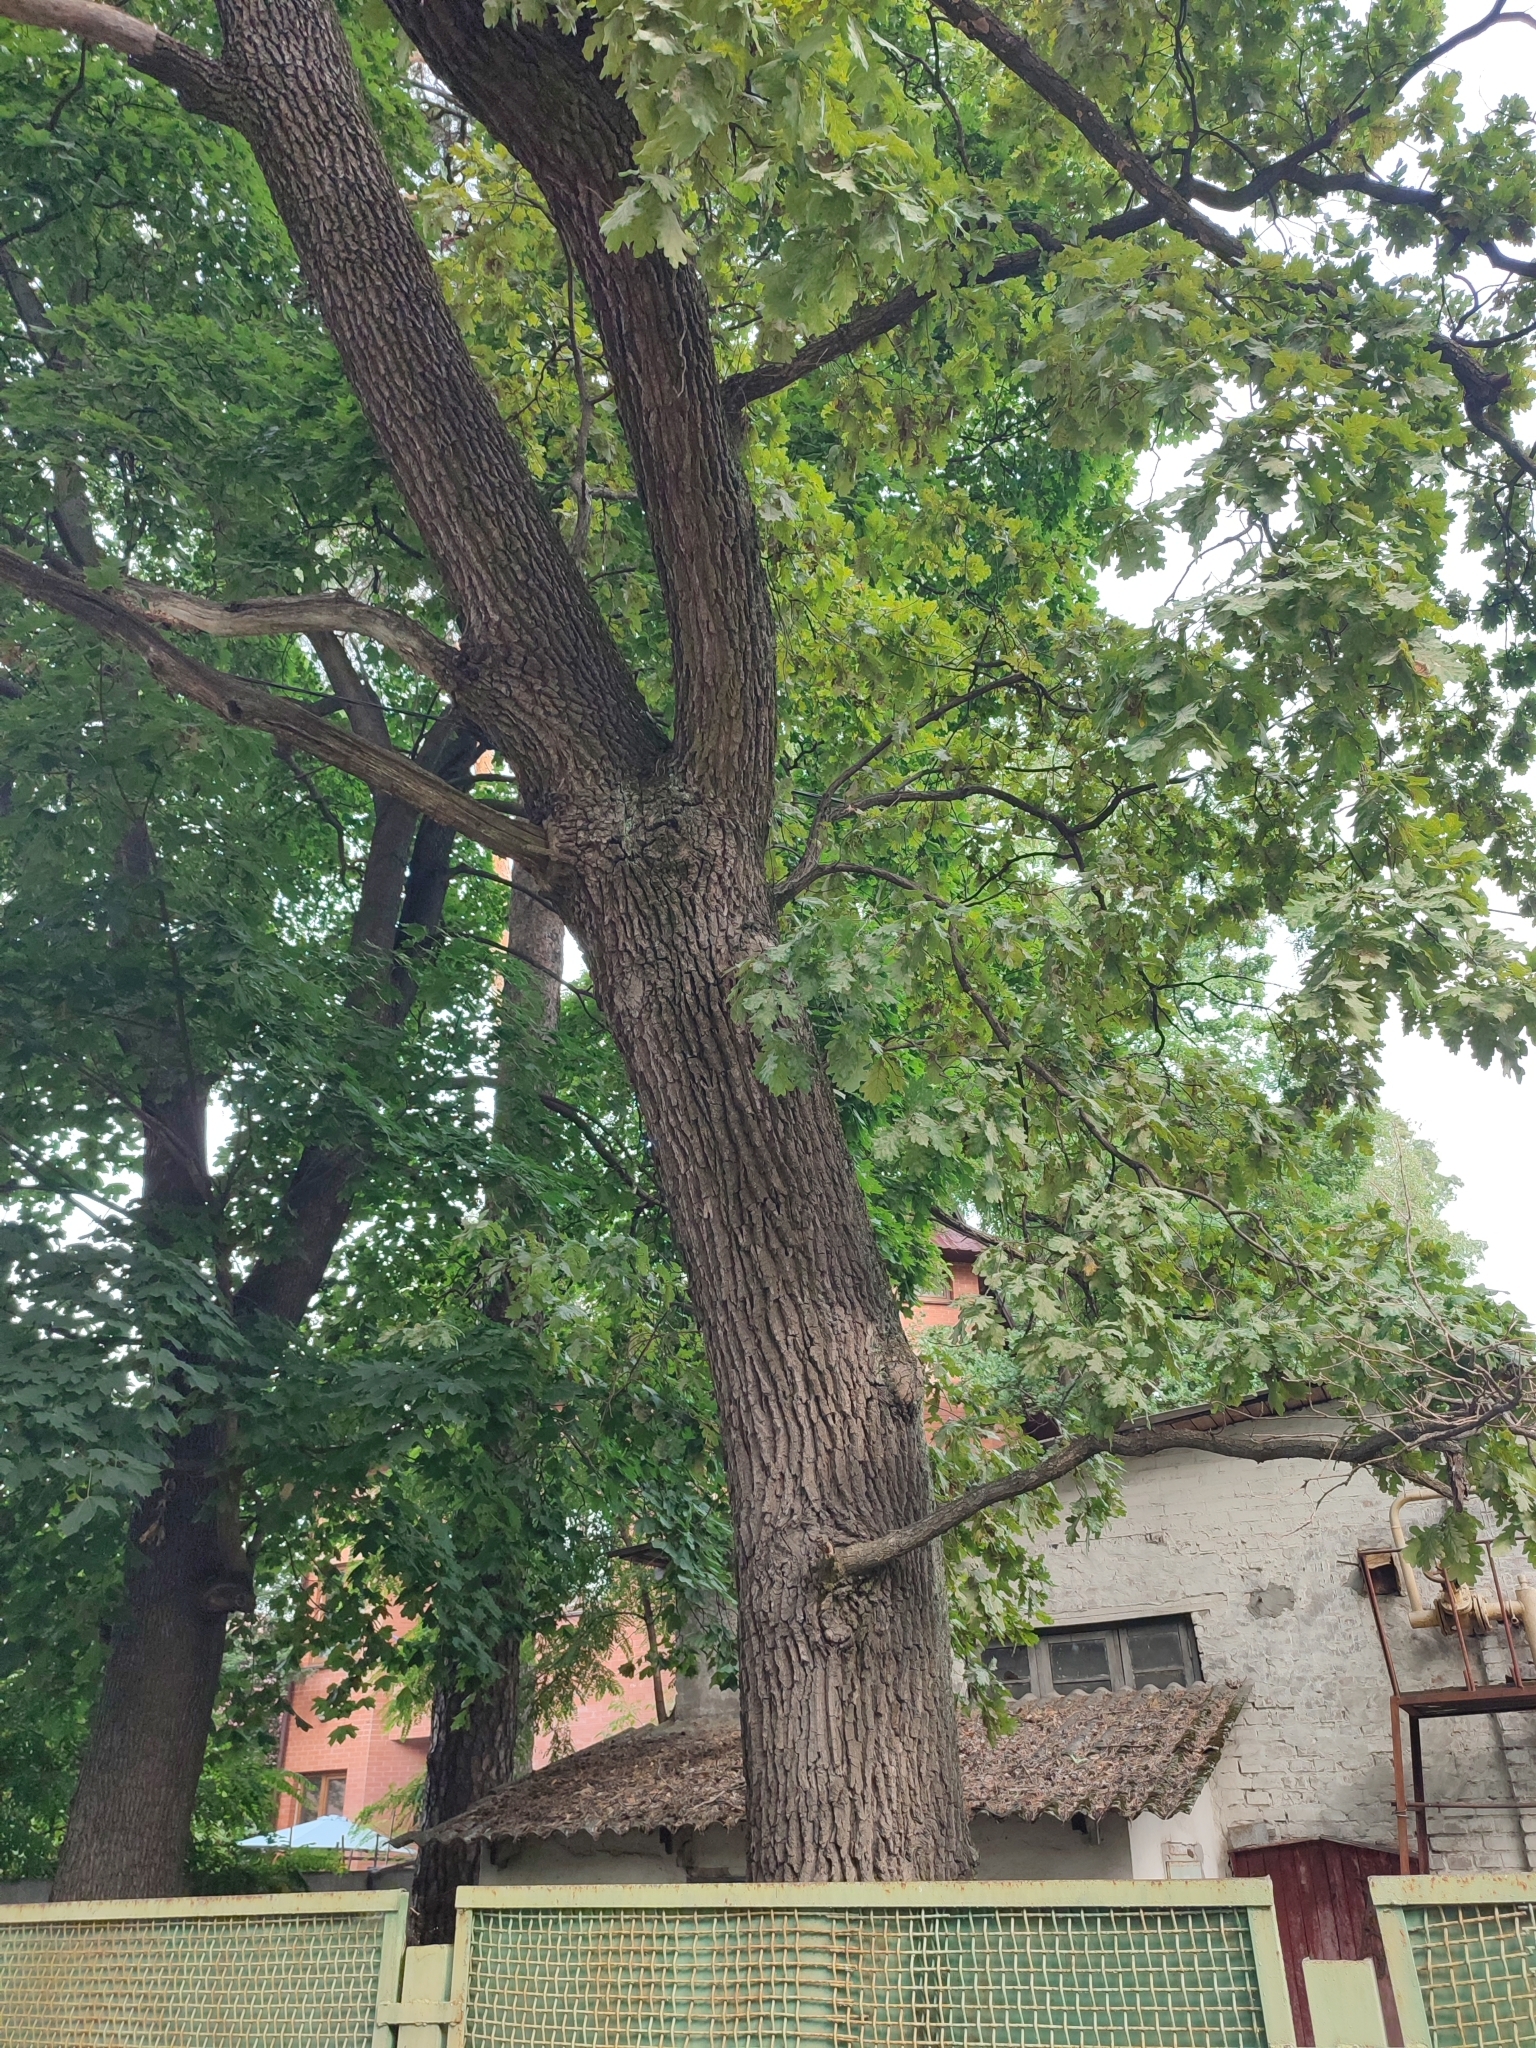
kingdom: Plantae
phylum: Tracheophyta
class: Magnoliopsida
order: Fagales
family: Fagaceae
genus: Quercus
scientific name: Quercus robur
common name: Pedunculate oak
